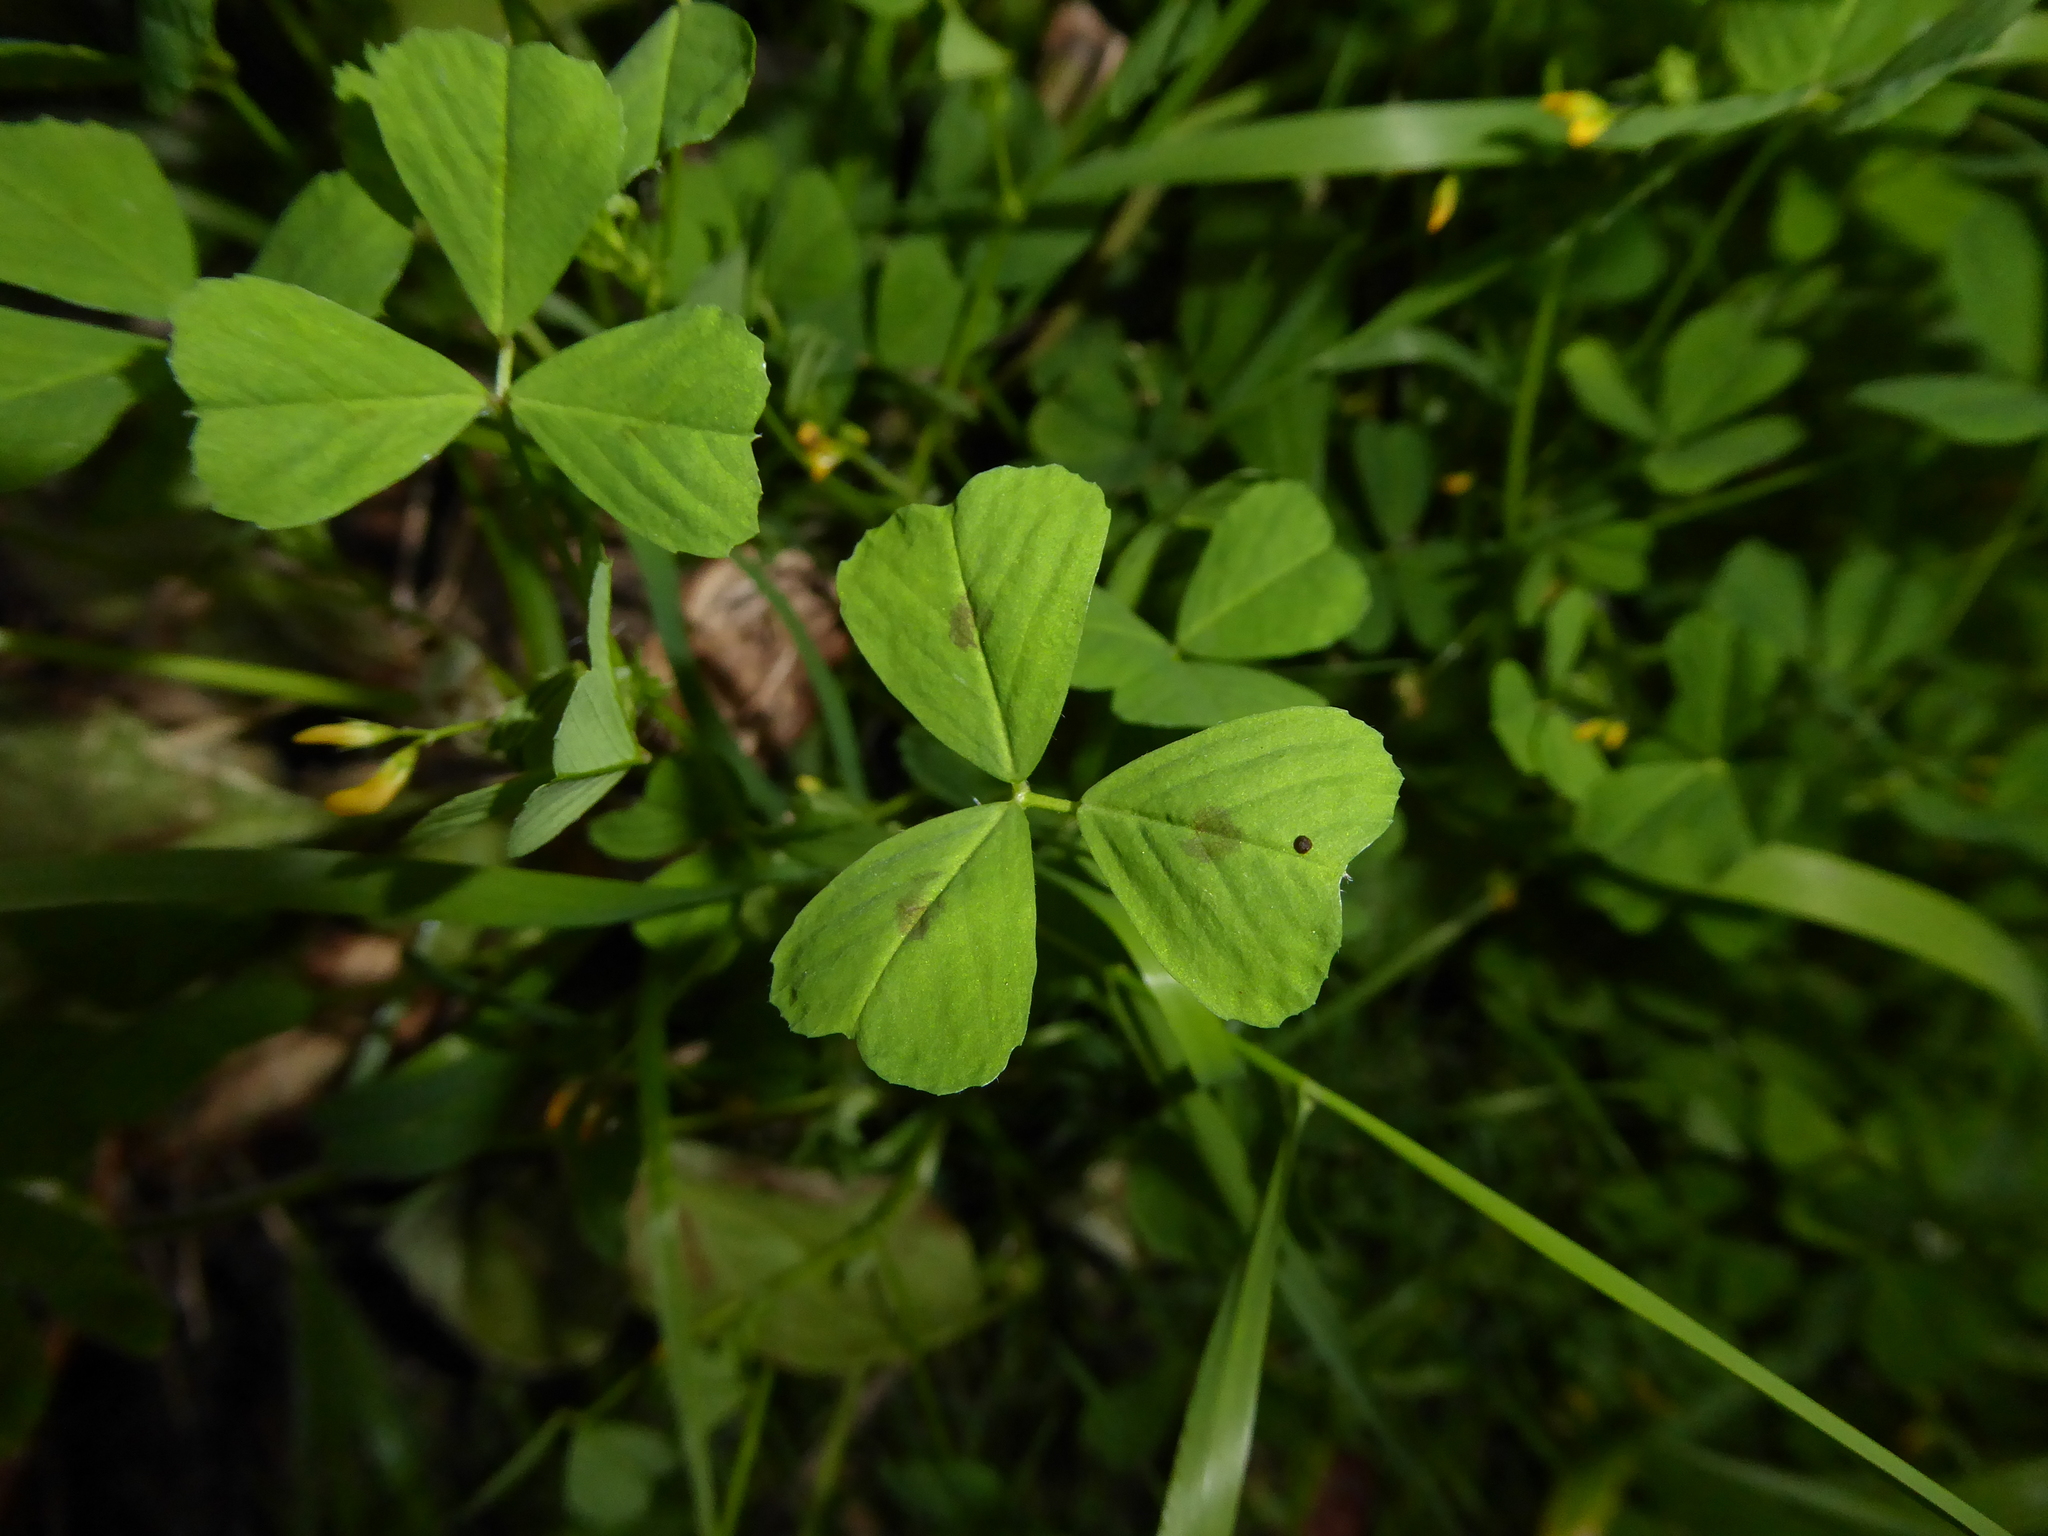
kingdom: Plantae
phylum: Tracheophyta
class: Magnoliopsida
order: Fabales
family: Fabaceae
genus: Medicago
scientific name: Medicago arabica
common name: Spotted medick
